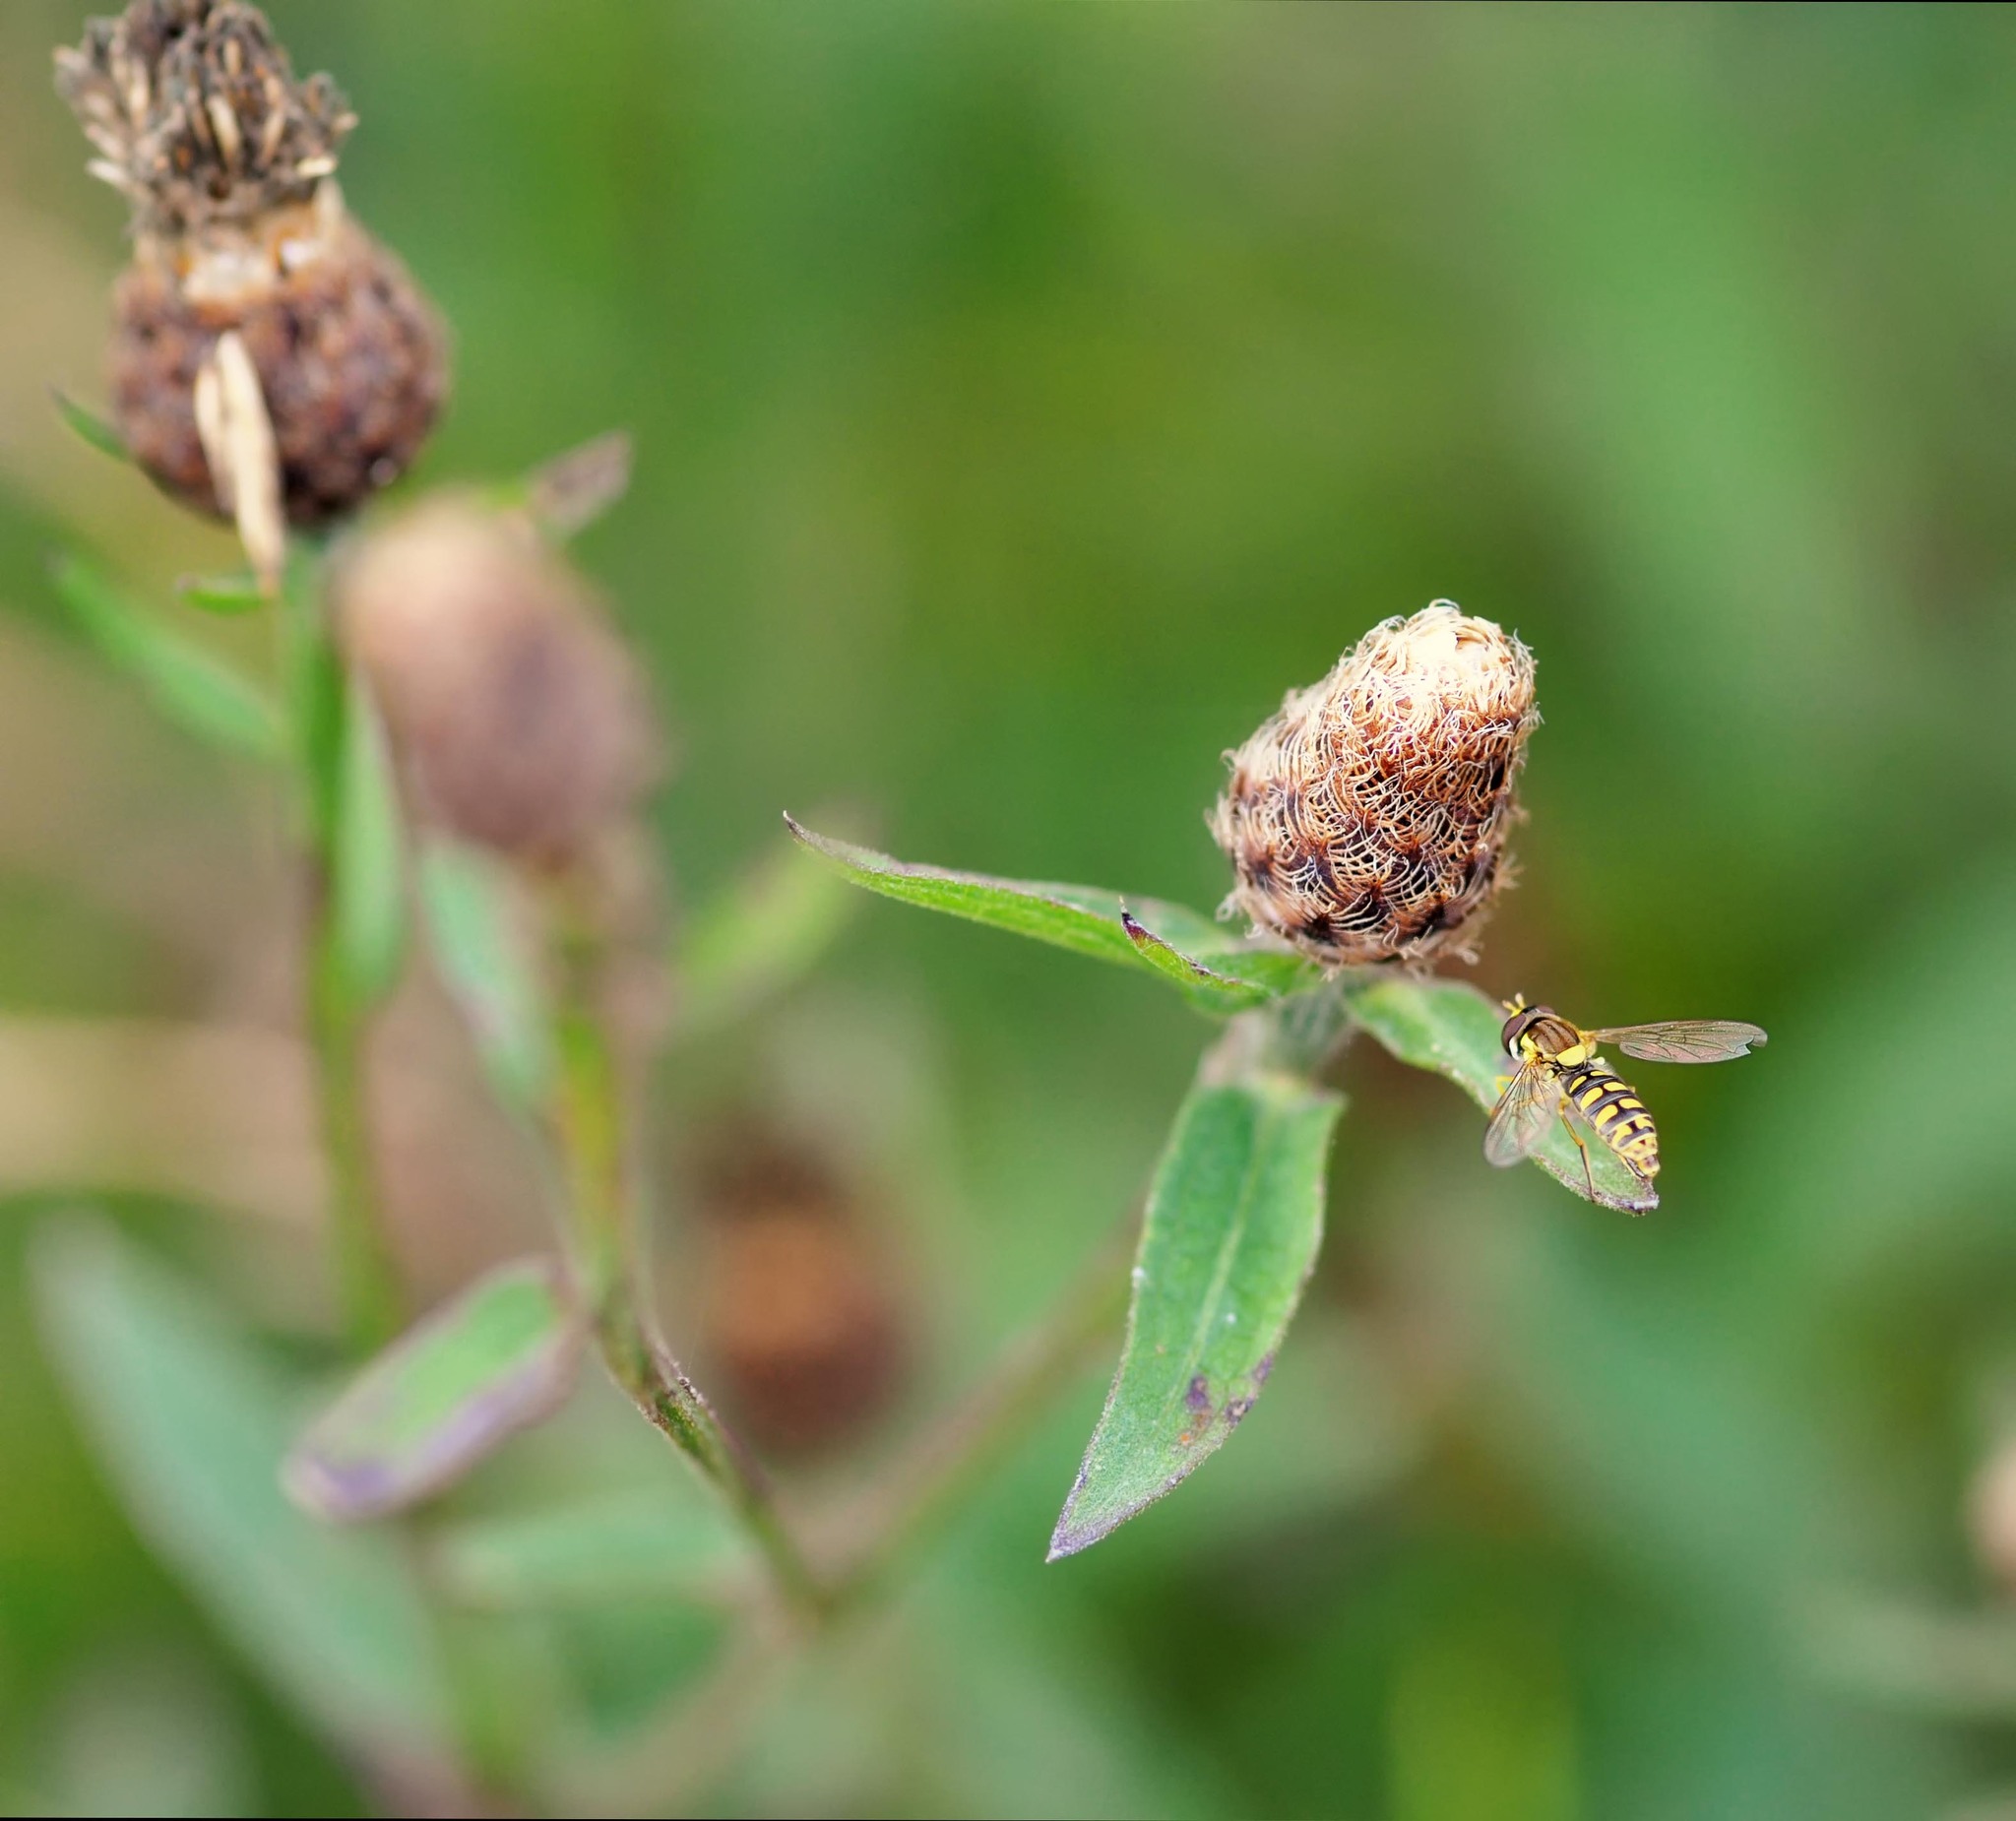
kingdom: Animalia
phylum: Arthropoda
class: Insecta
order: Diptera
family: Syrphidae
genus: Sphaerophoria
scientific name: Sphaerophoria
